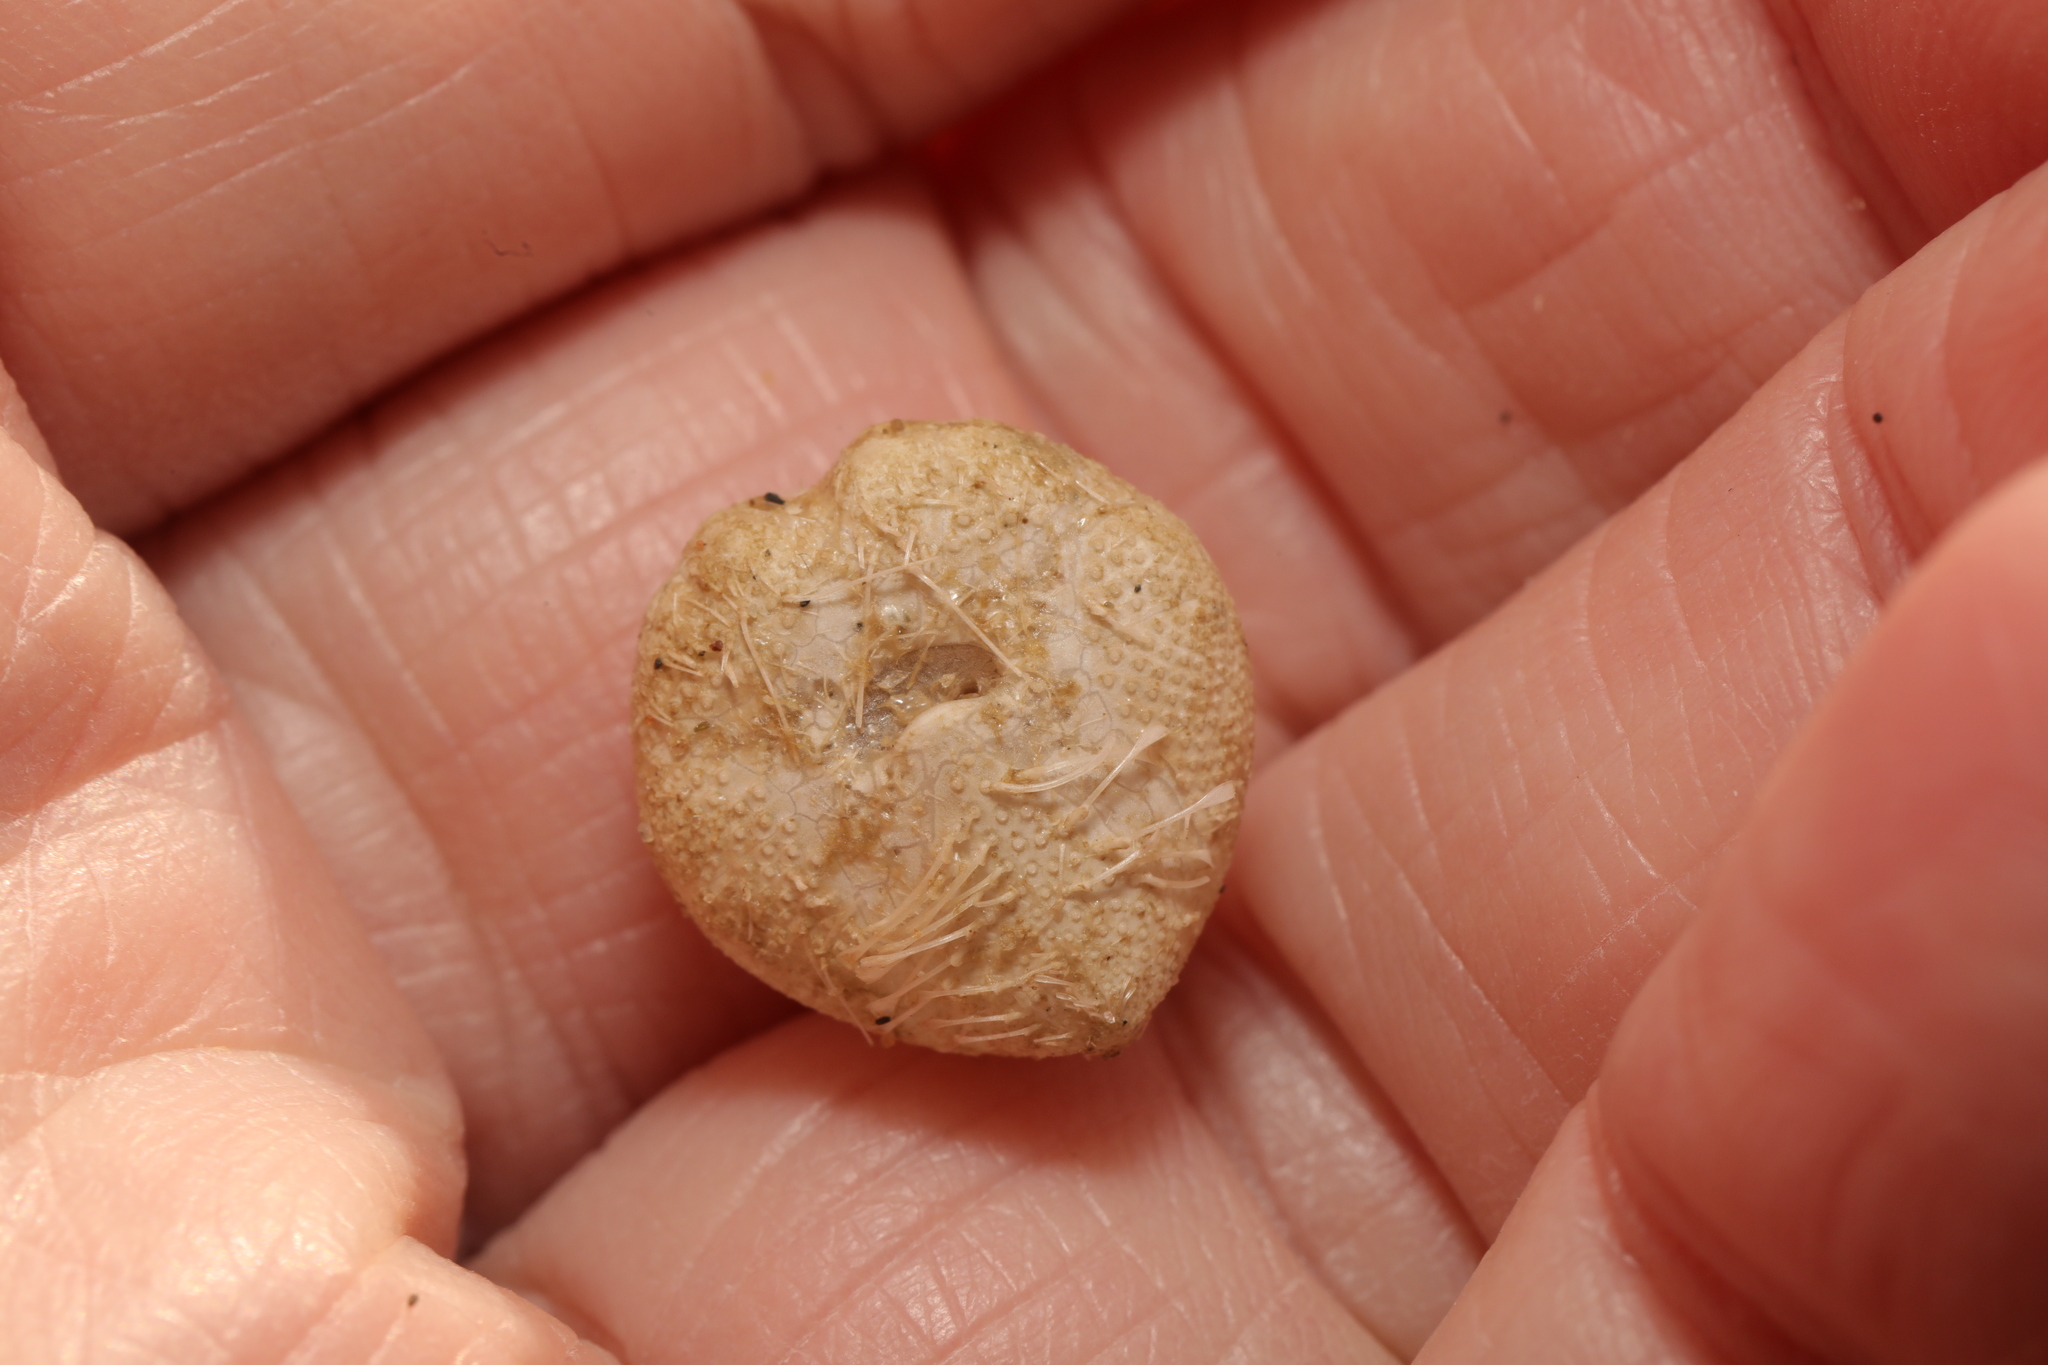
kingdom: Animalia
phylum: Echinodermata
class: Echinoidea
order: Spatangoida
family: Loveniidae
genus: Echinocardium
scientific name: Echinocardium cordatum
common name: Heart-urchin
